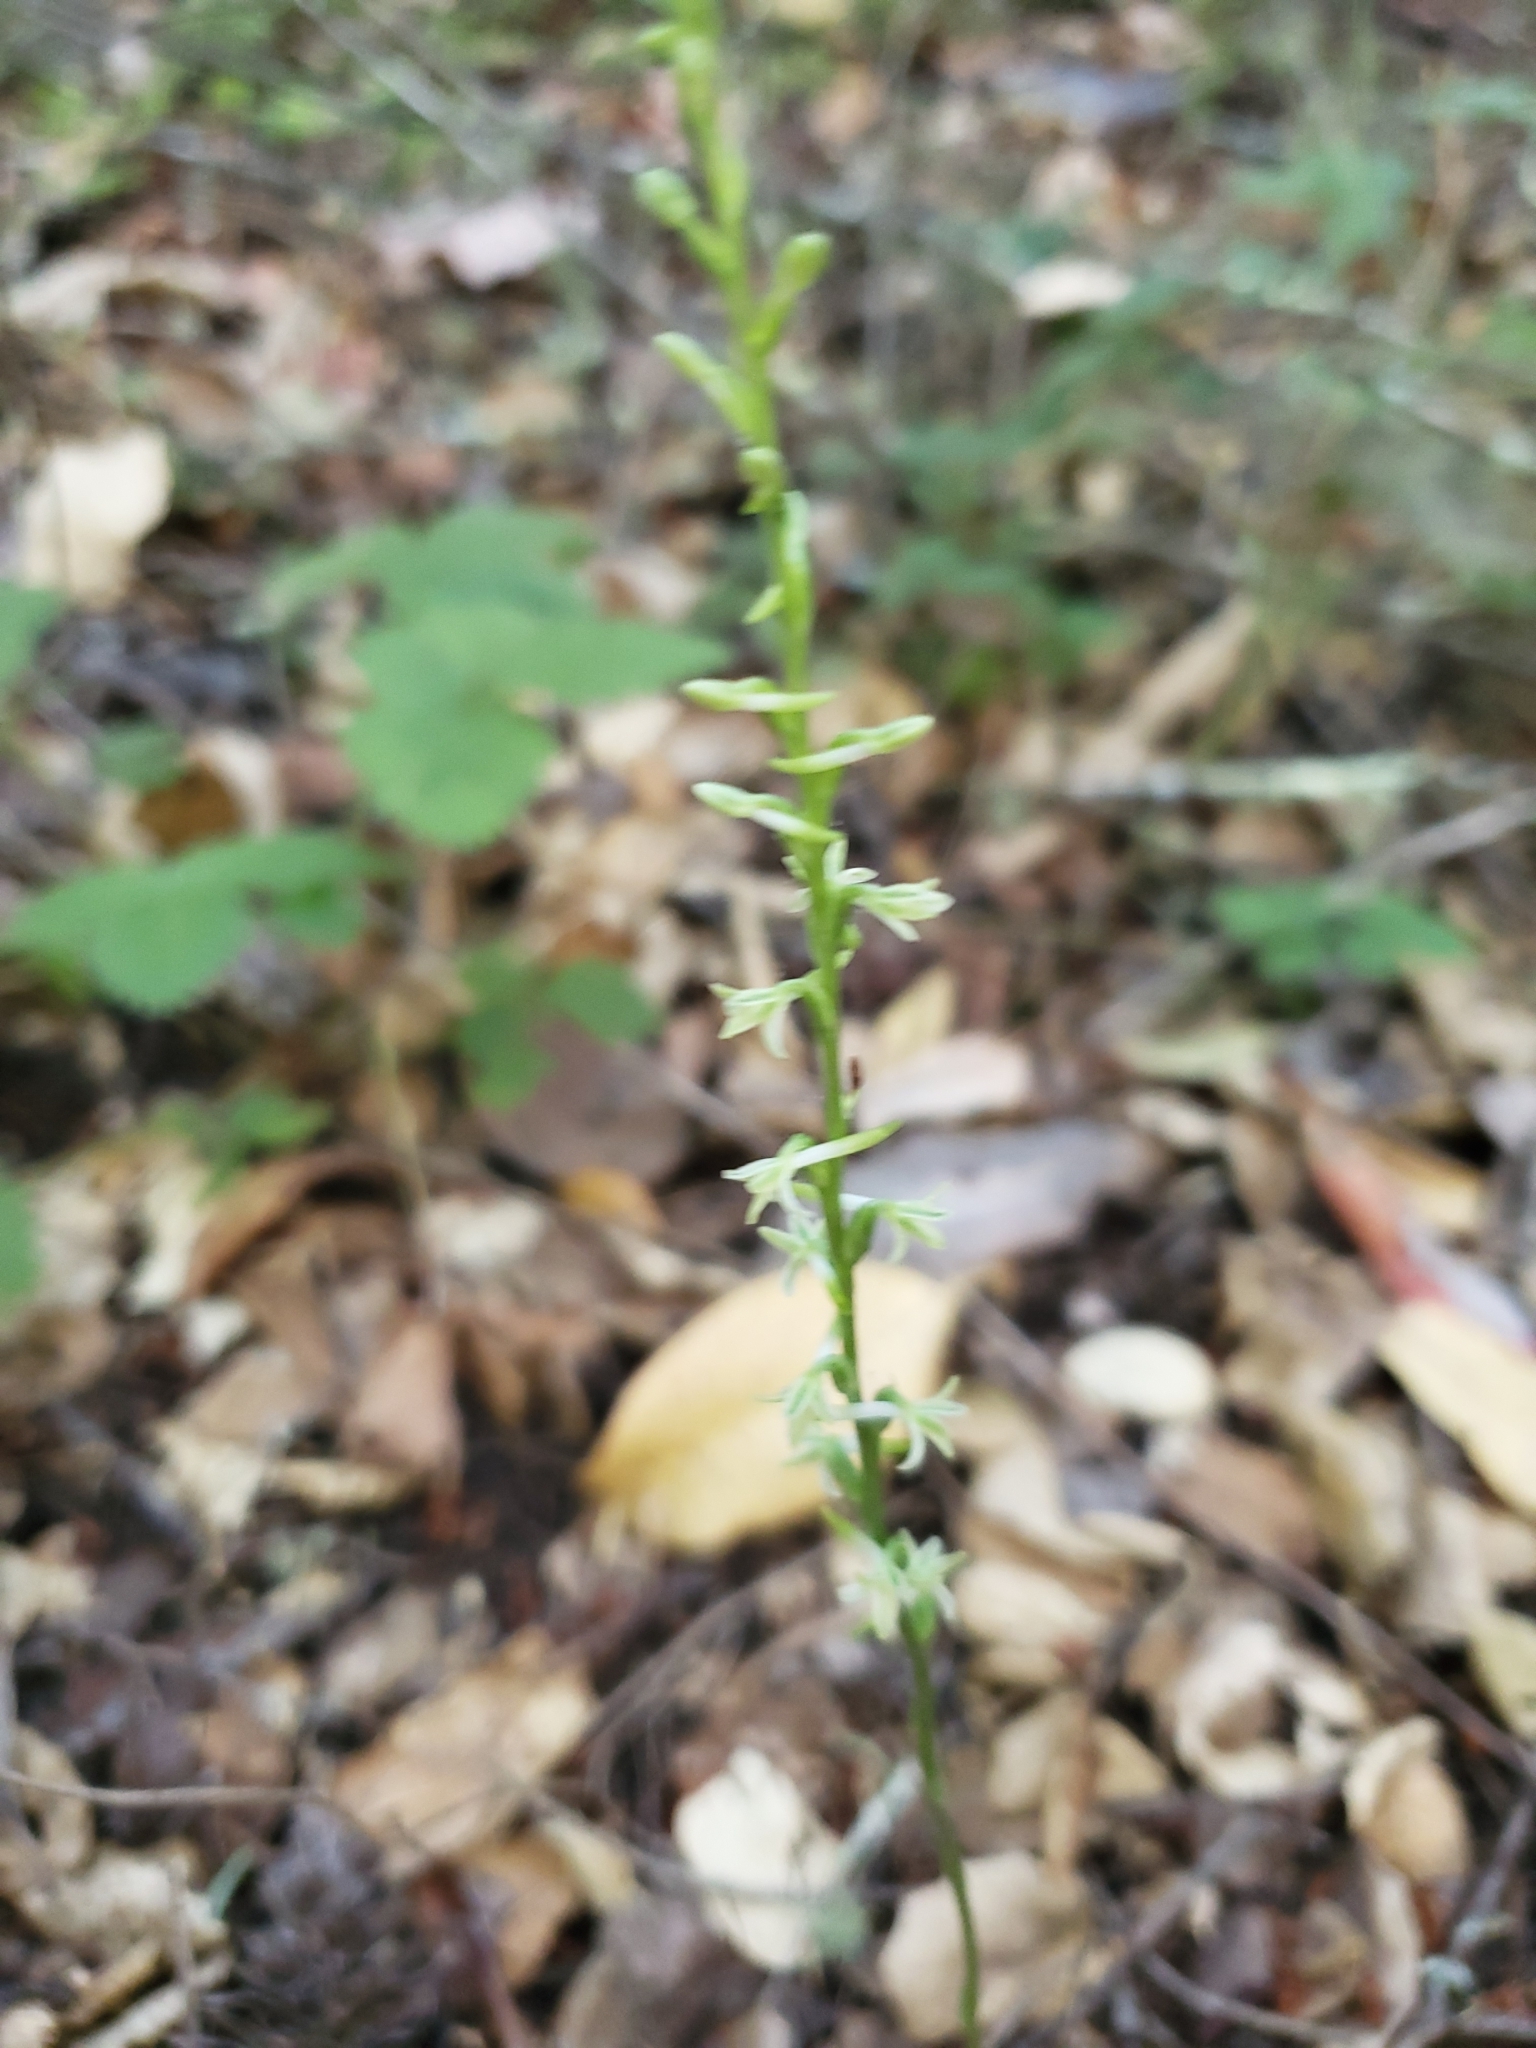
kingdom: Plantae
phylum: Tracheophyta
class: Liliopsida
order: Asparagales
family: Orchidaceae
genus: Platanthera
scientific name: Platanthera transversa
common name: Royal rein orchid
